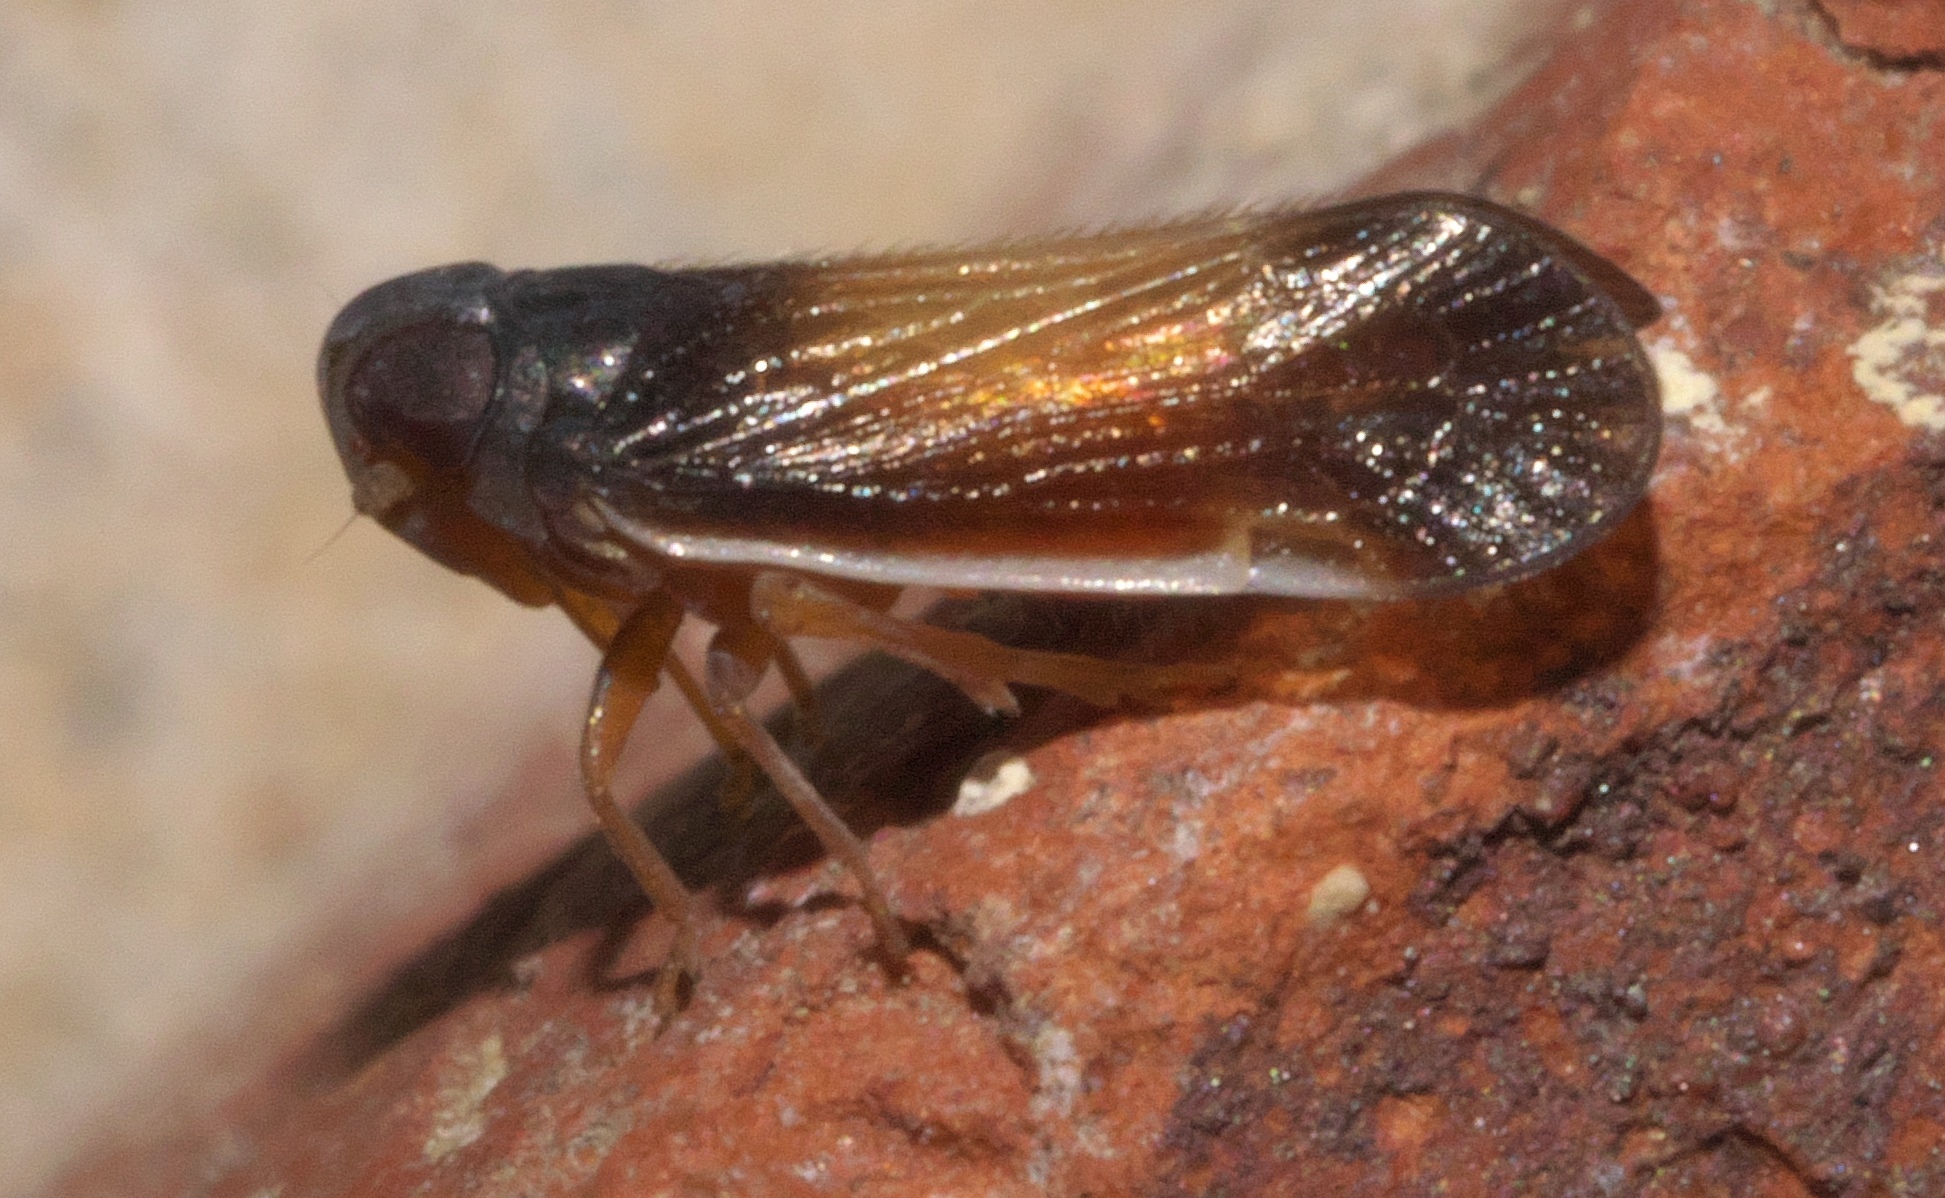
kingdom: Animalia
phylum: Arthropoda
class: Insecta
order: Hemiptera
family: Cixiidae
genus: Haplaxius
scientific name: Haplaxius slossonae
